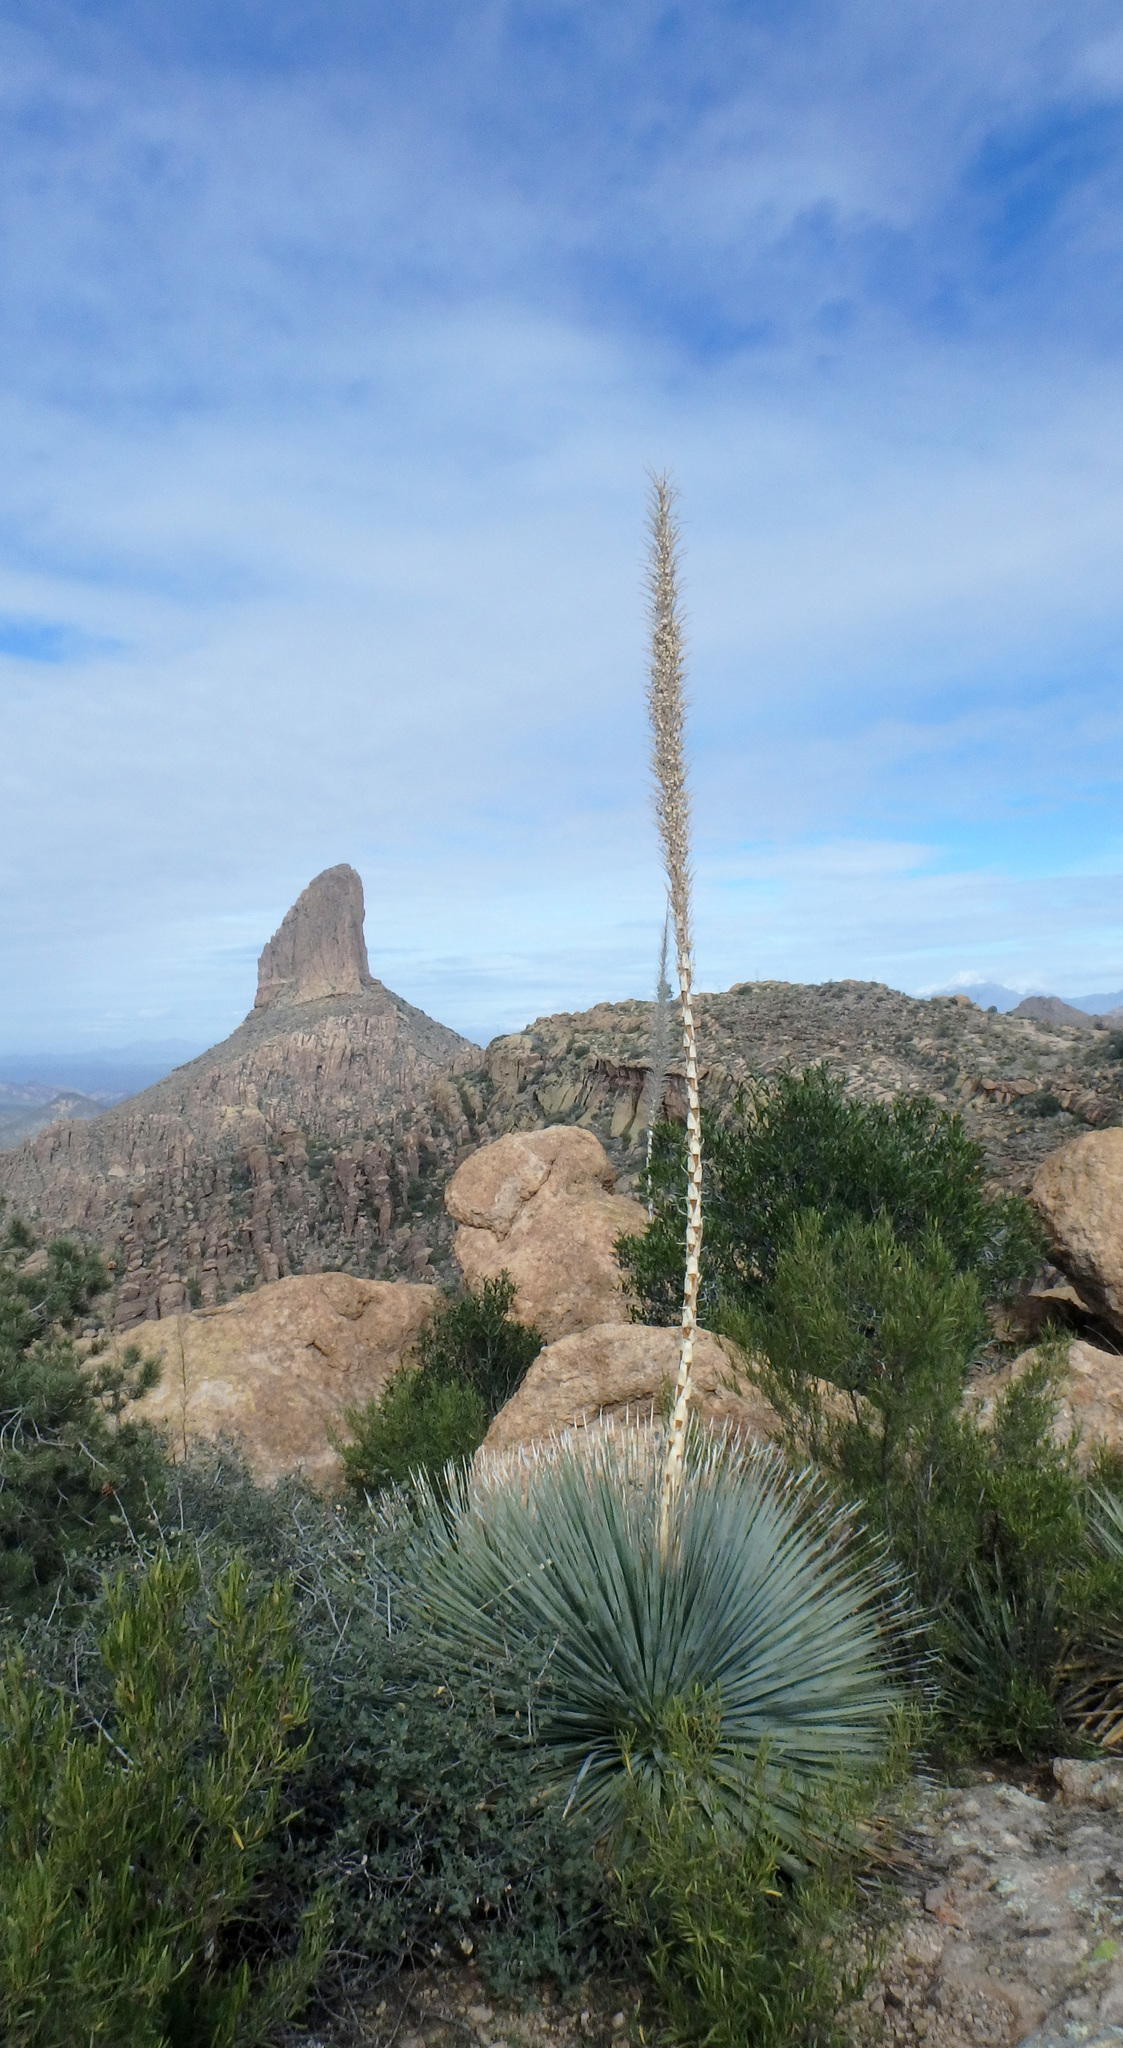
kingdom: Plantae
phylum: Tracheophyta
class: Liliopsida
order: Asparagales
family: Asparagaceae
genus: Dasylirion
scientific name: Dasylirion wheeleri
